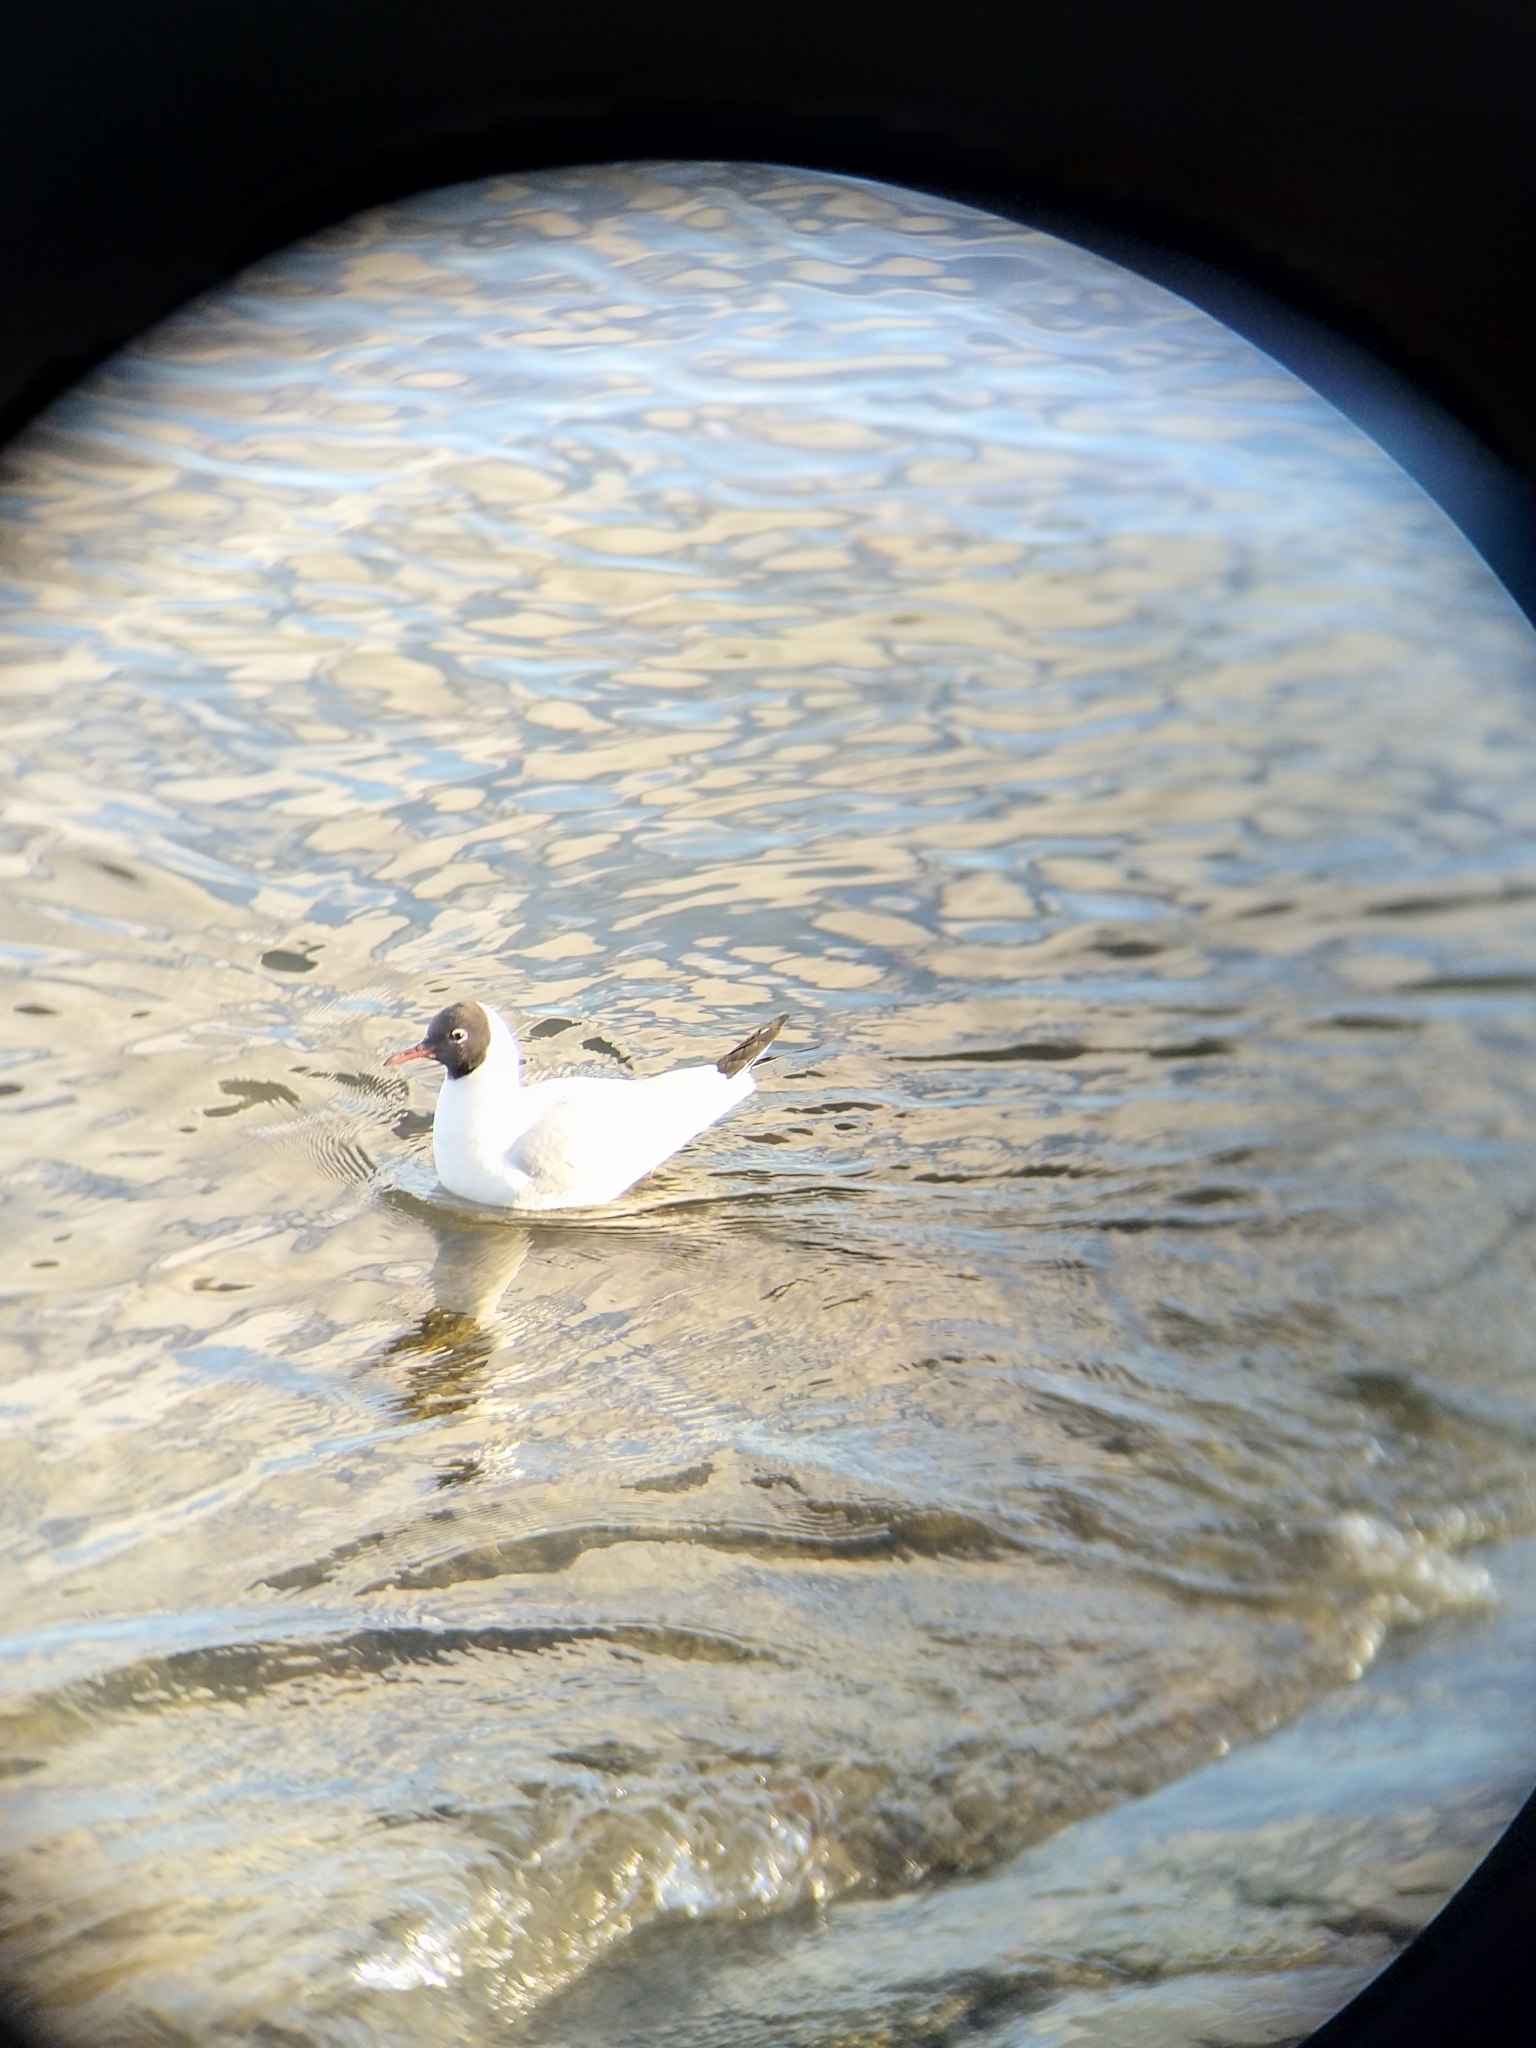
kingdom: Animalia
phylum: Chordata
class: Aves
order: Charadriiformes
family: Laridae
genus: Chroicocephalus
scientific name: Chroicocephalus ridibundus
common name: Black-headed gull
